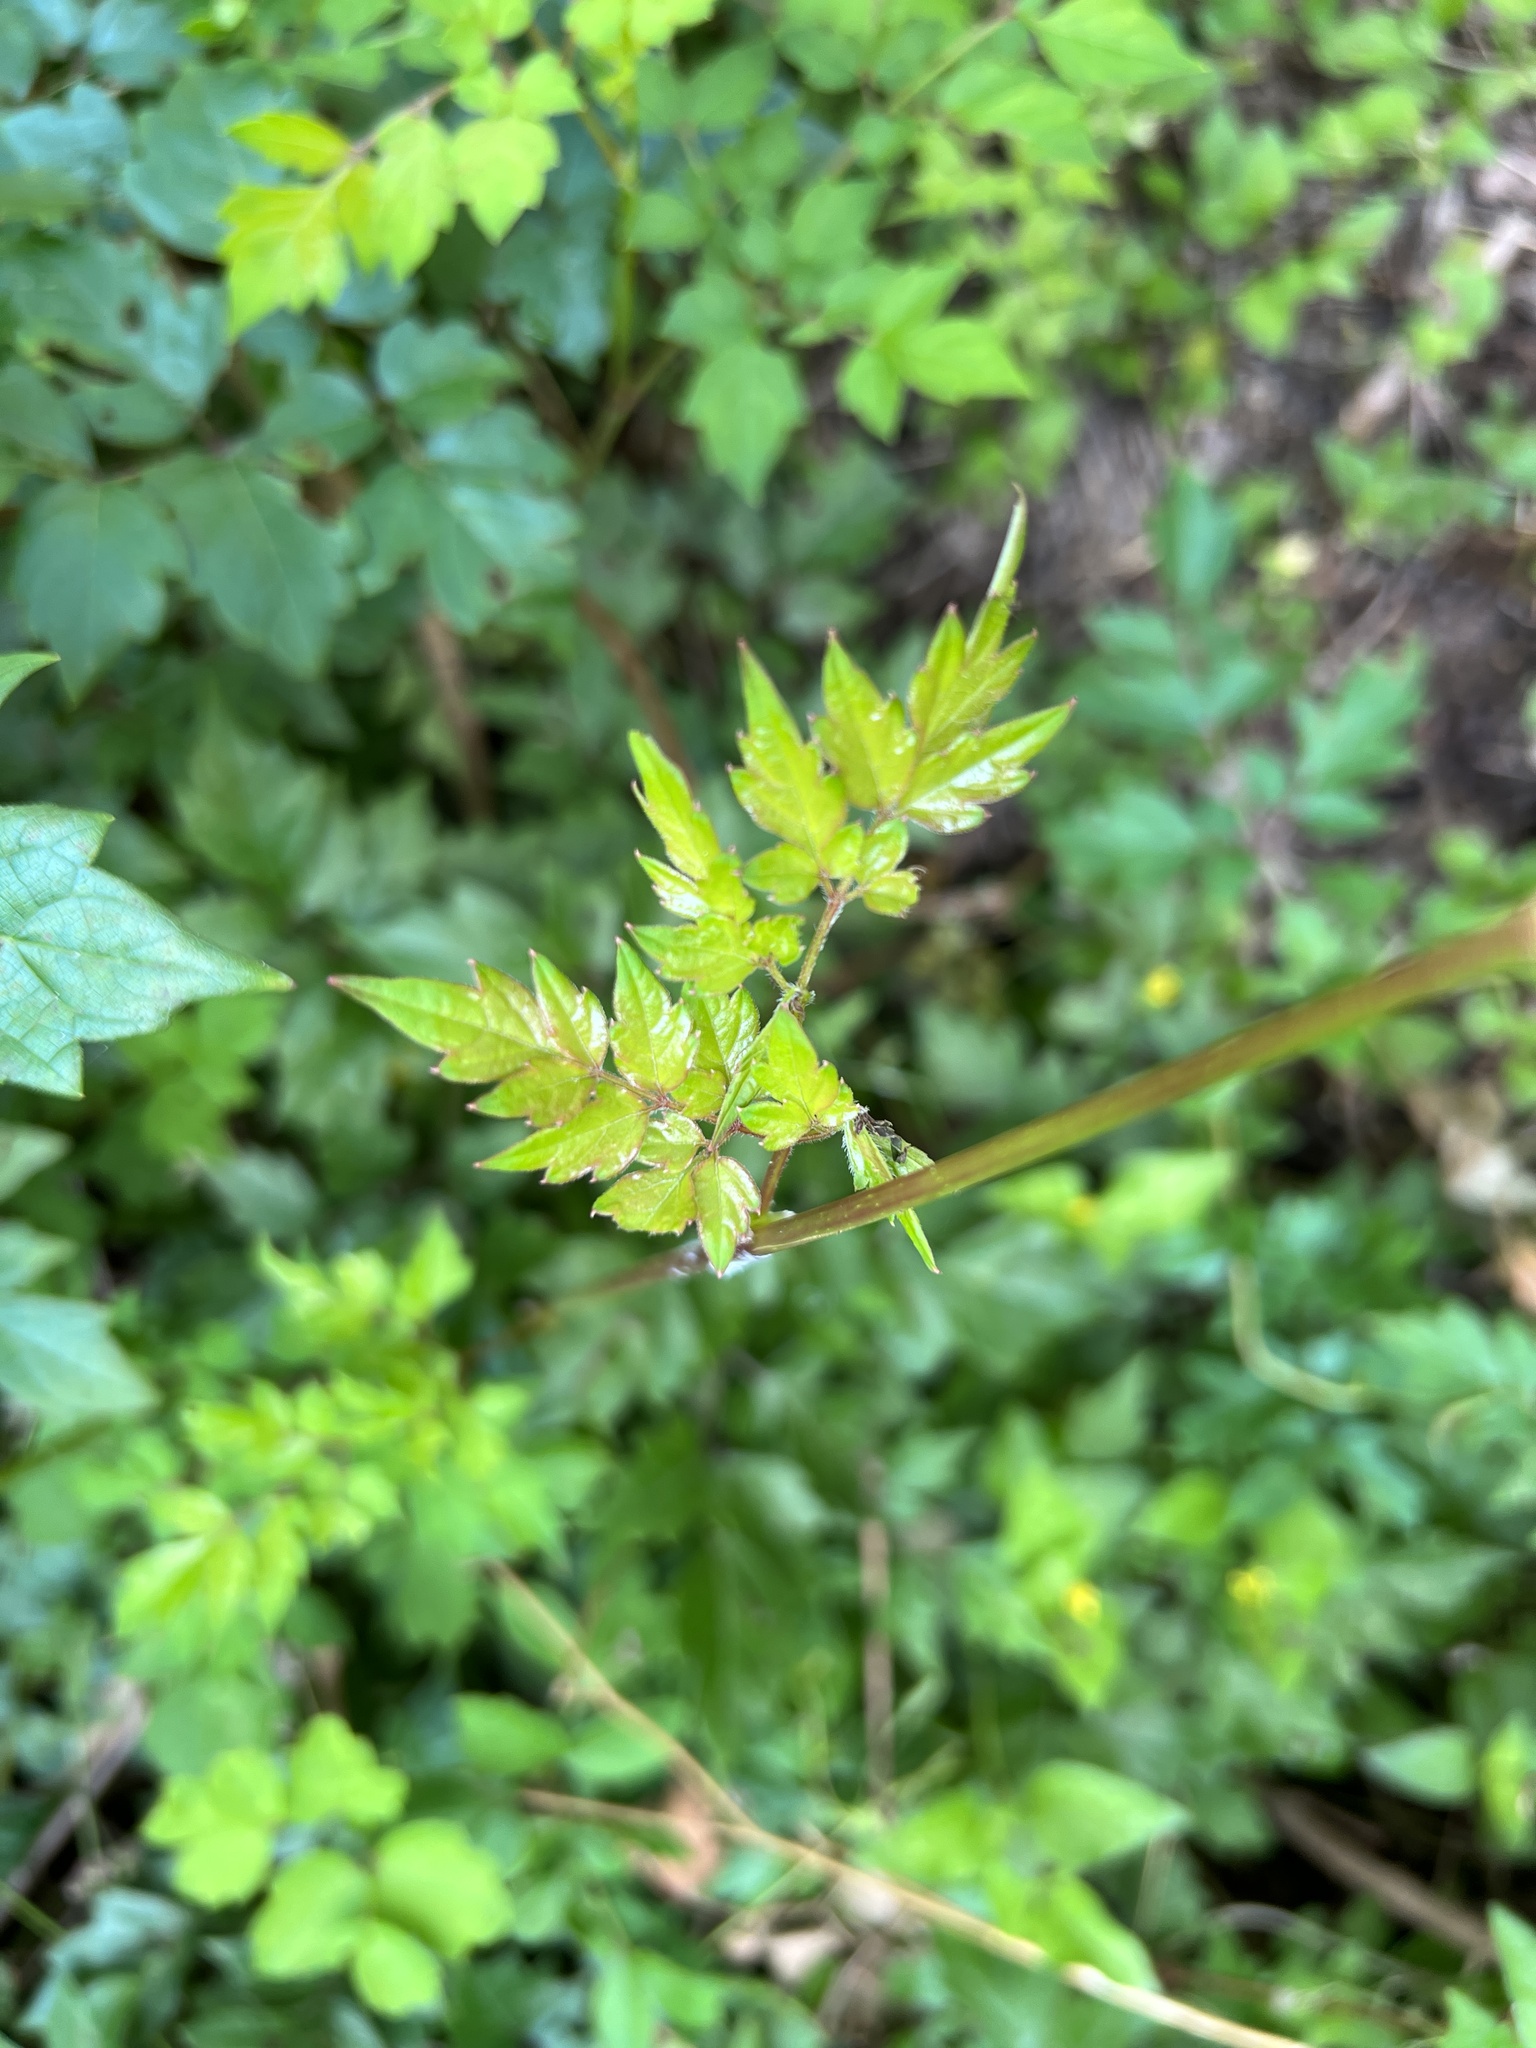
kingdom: Plantae
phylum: Tracheophyta
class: Magnoliopsida
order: Vitales
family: Vitaceae
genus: Nekemias
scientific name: Nekemias arborea
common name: Peppervine
